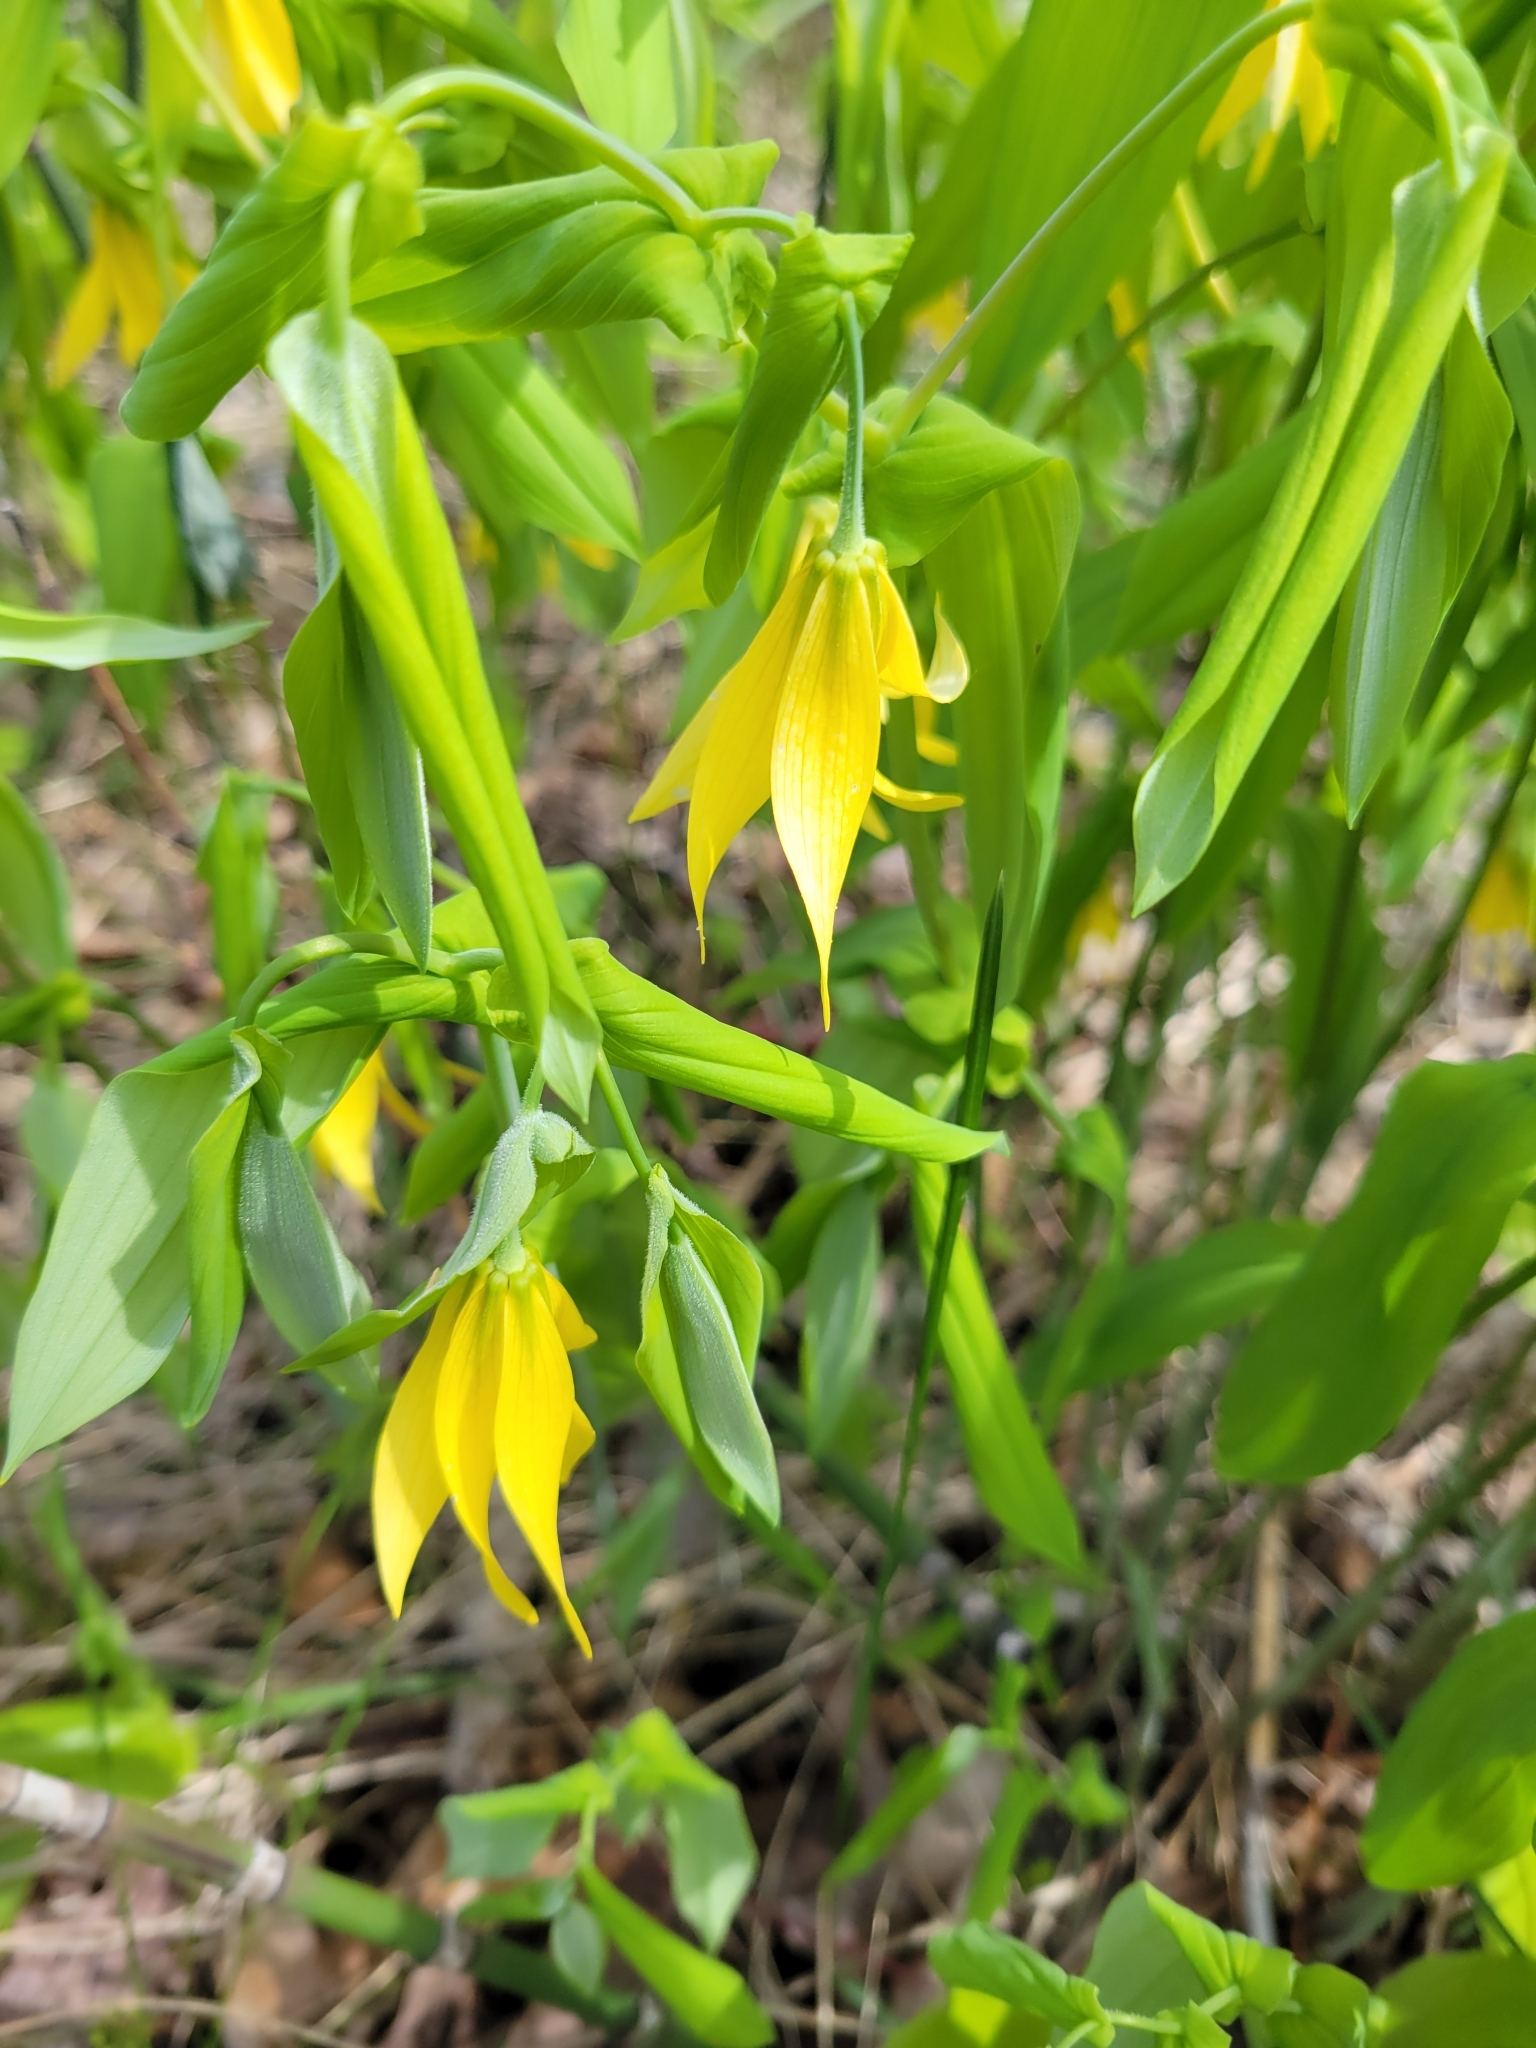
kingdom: Plantae
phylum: Tracheophyta
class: Liliopsida
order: Liliales
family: Colchicaceae
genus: Uvularia
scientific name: Uvularia grandiflora
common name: Bellwort
